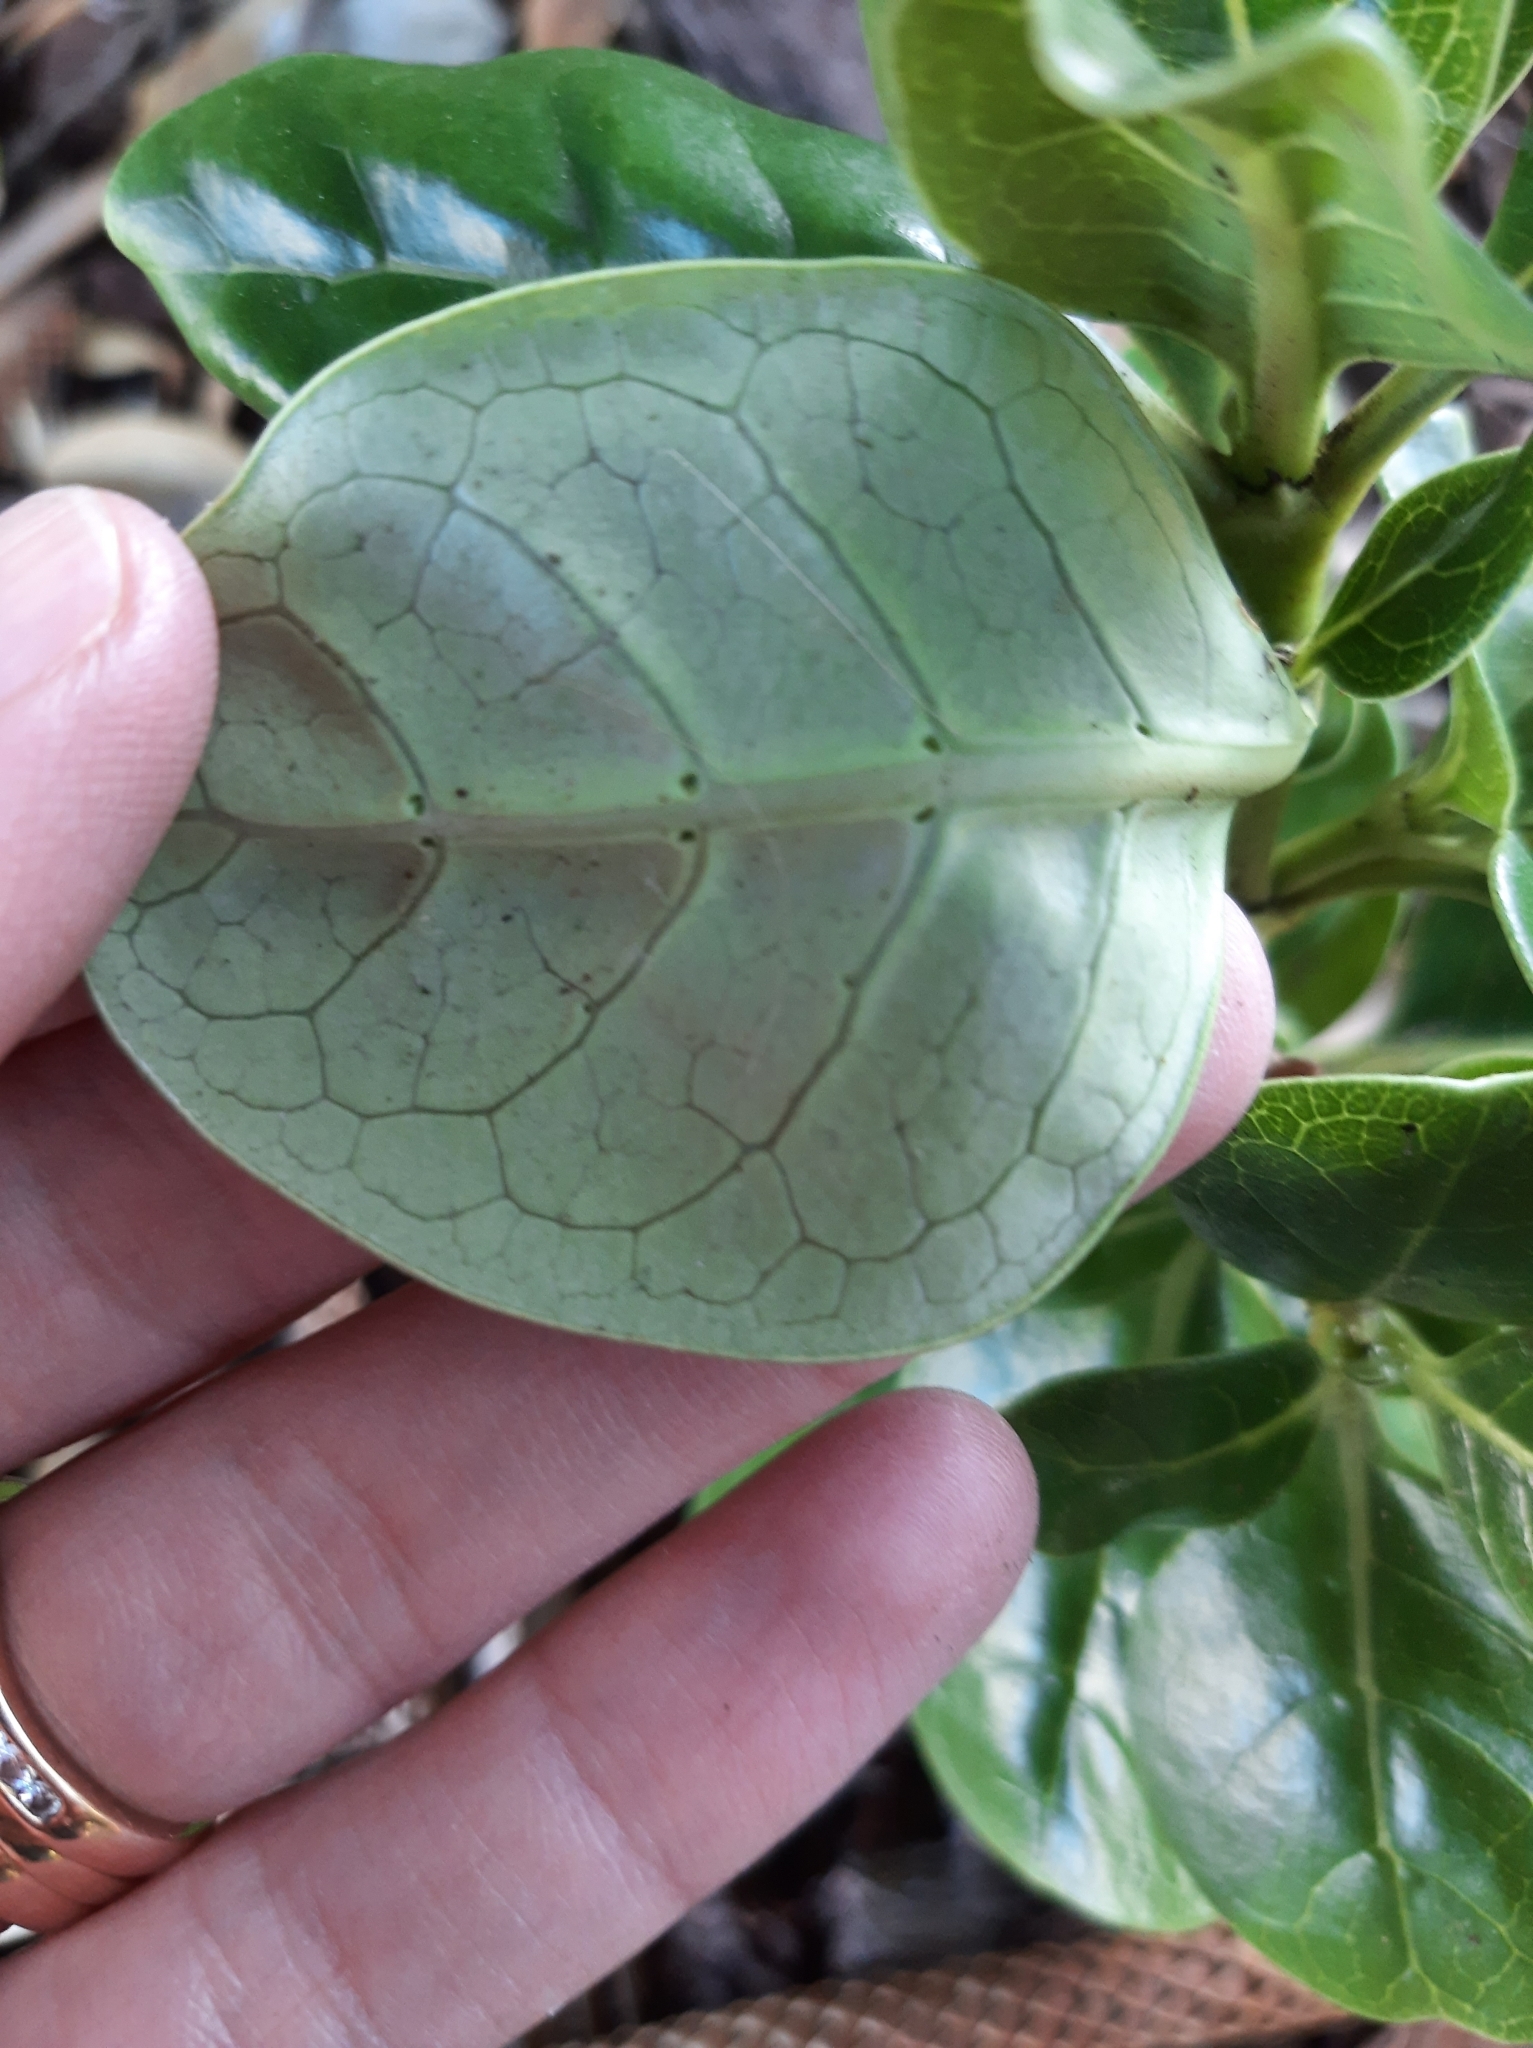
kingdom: Plantae
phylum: Tracheophyta
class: Magnoliopsida
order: Gentianales
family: Rubiaceae
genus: Coprosma
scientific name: Coprosma repens
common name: Tree bedstraw
